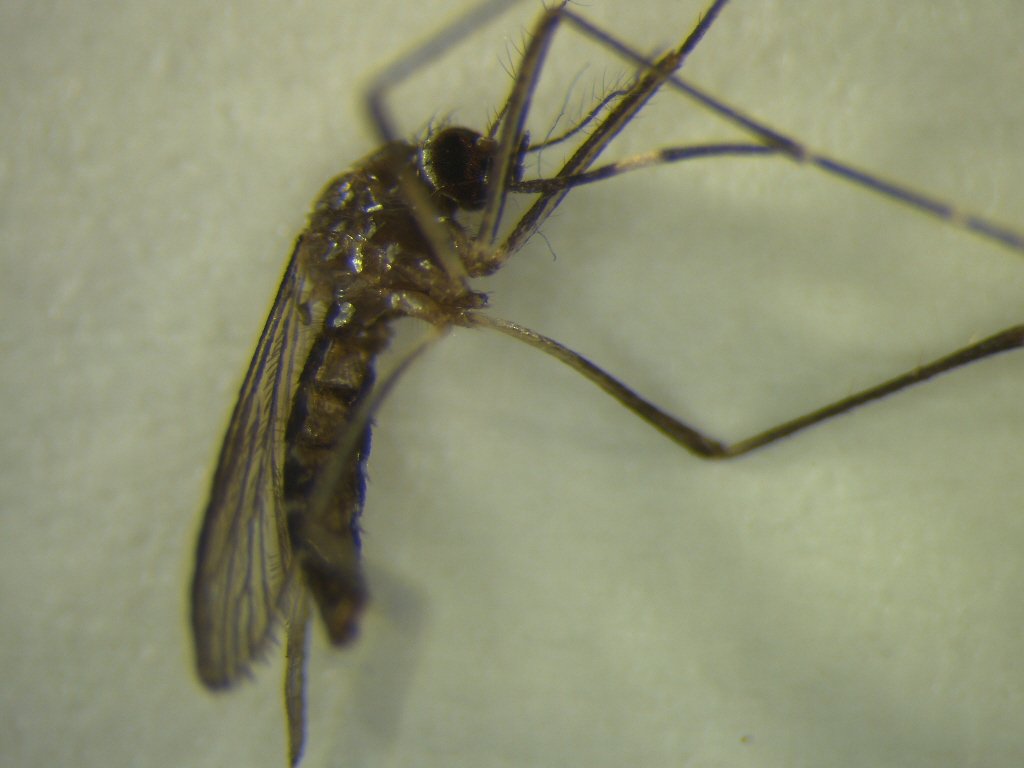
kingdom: Animalia
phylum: Arthropoda
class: Insecta
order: Diptera
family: Culicidae
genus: Aedes
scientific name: Aedes notoscriptus
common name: Australian backyard mosquito
